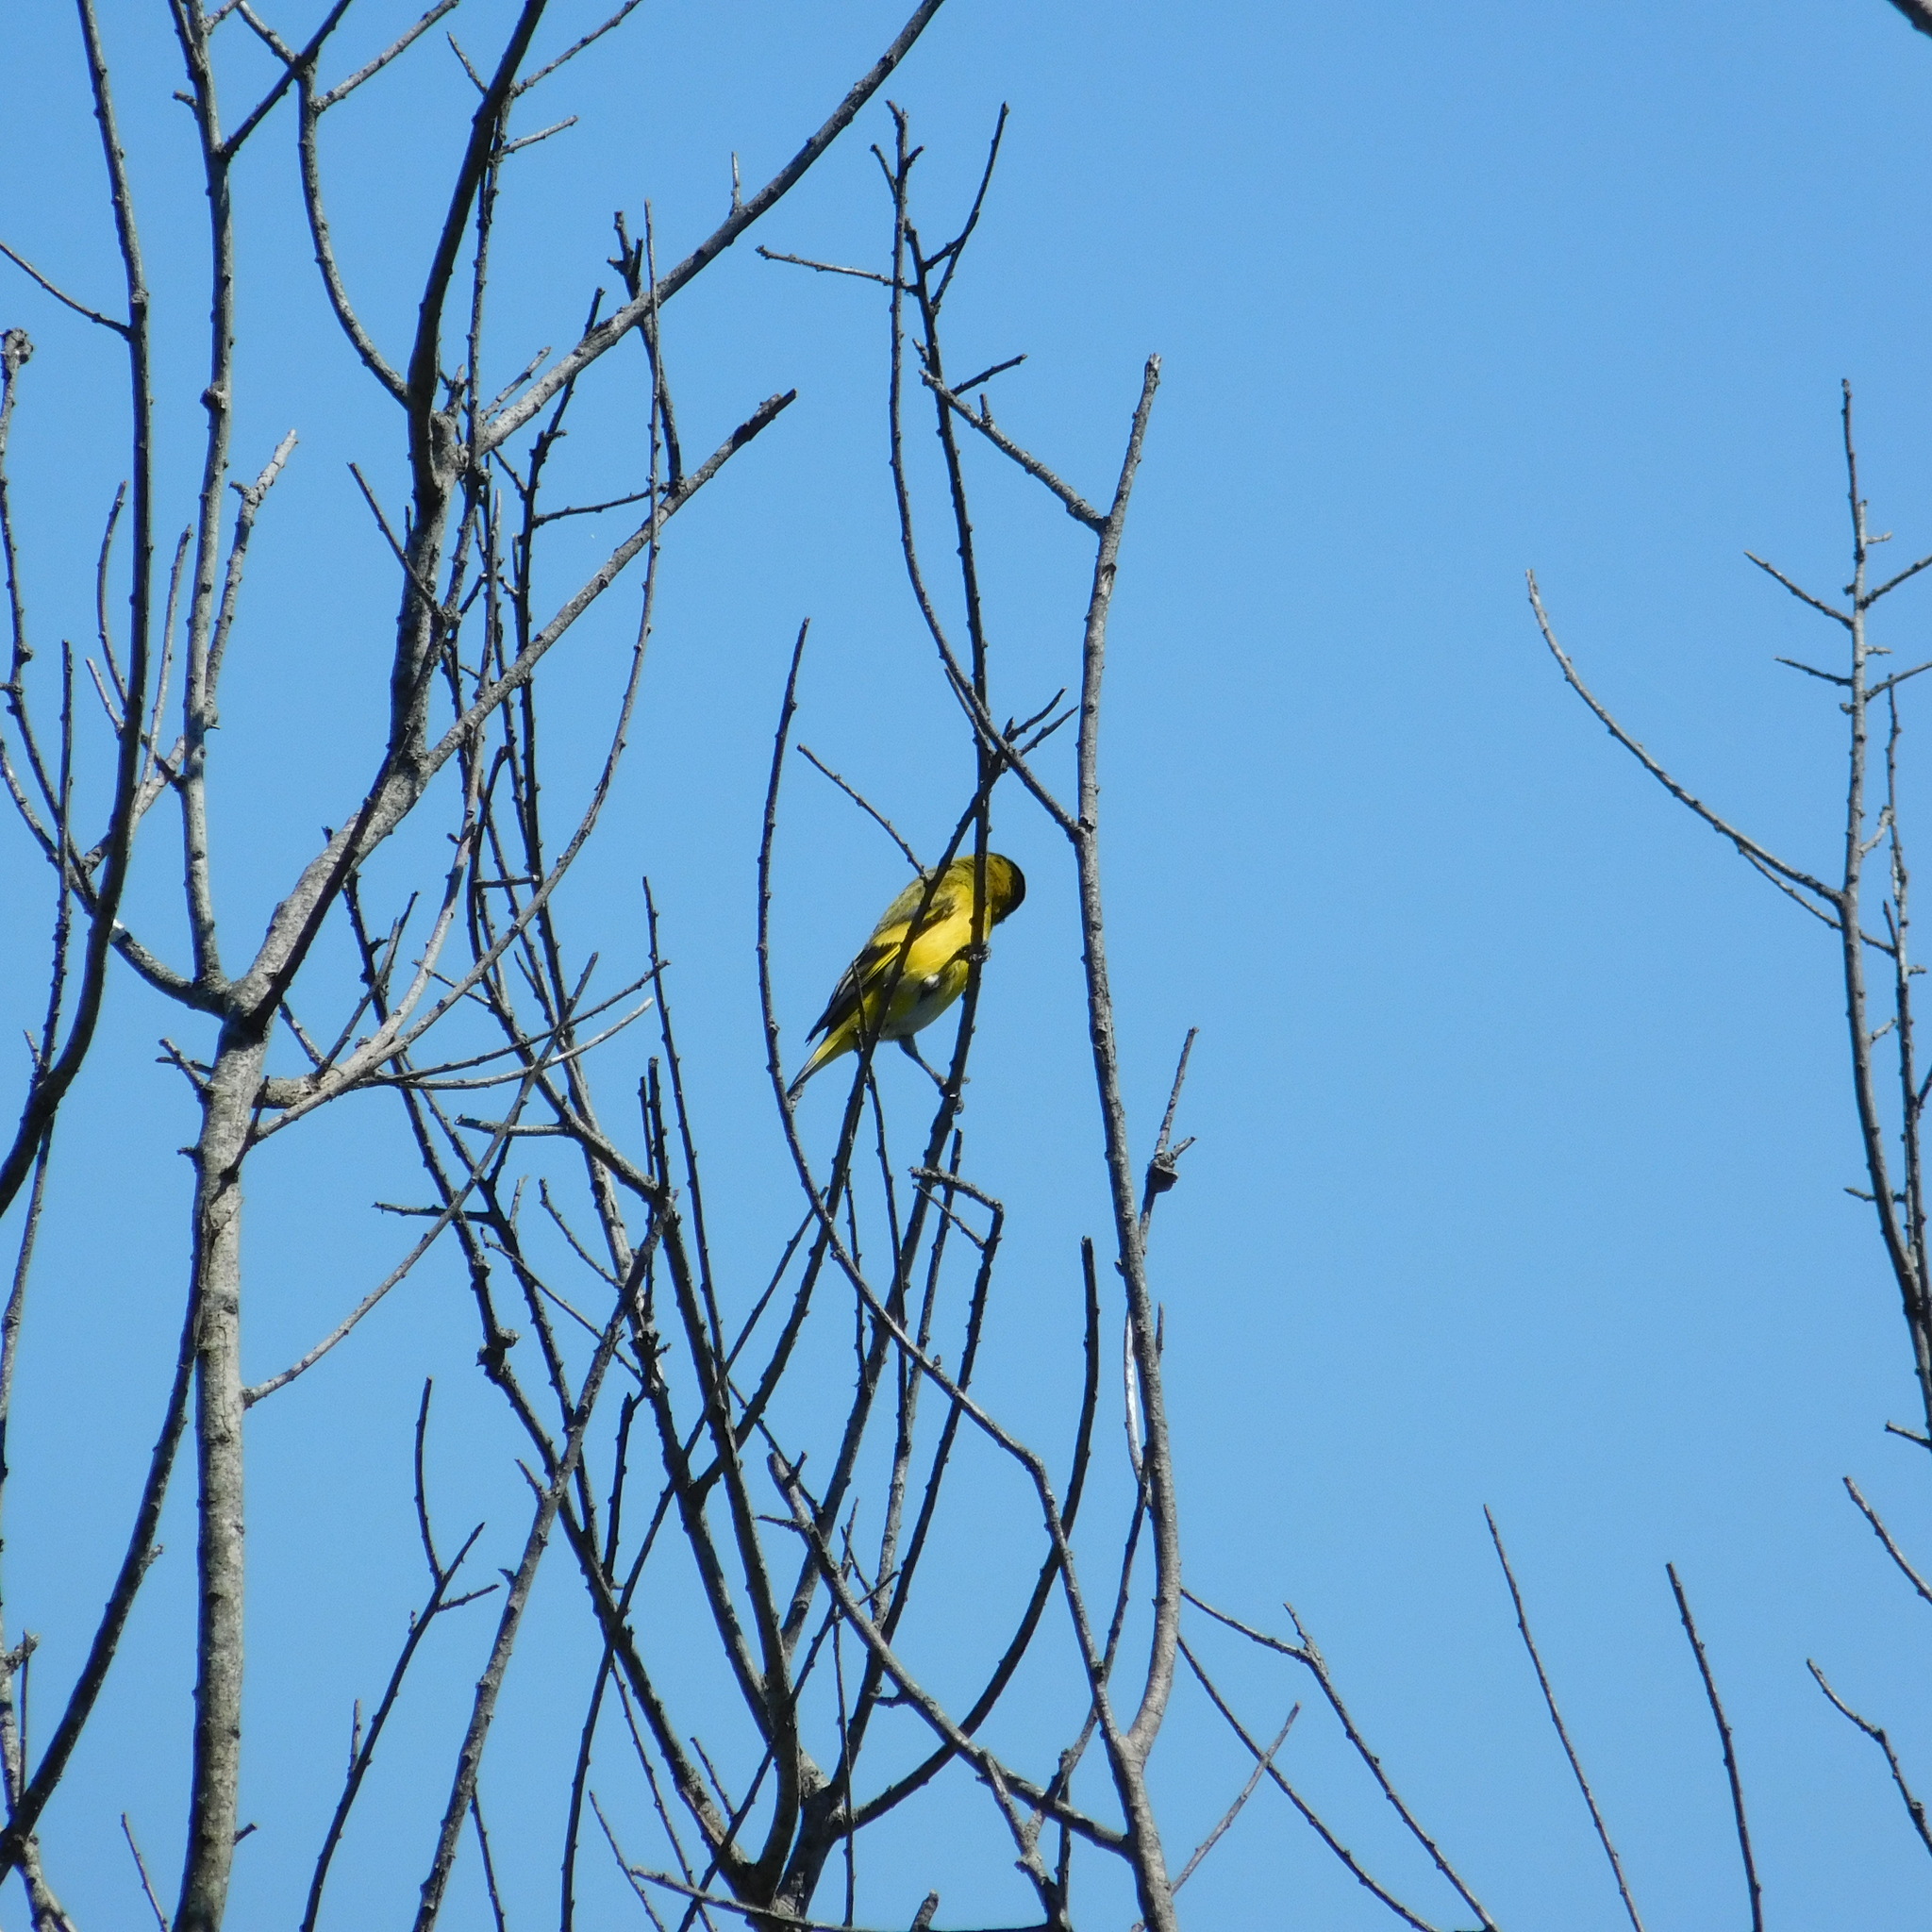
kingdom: Animalia
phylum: Chordata
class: Aves
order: Passeriformes
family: Fringillidae
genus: Spinus
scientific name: Spinus magellanicus
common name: Hooded siskin
